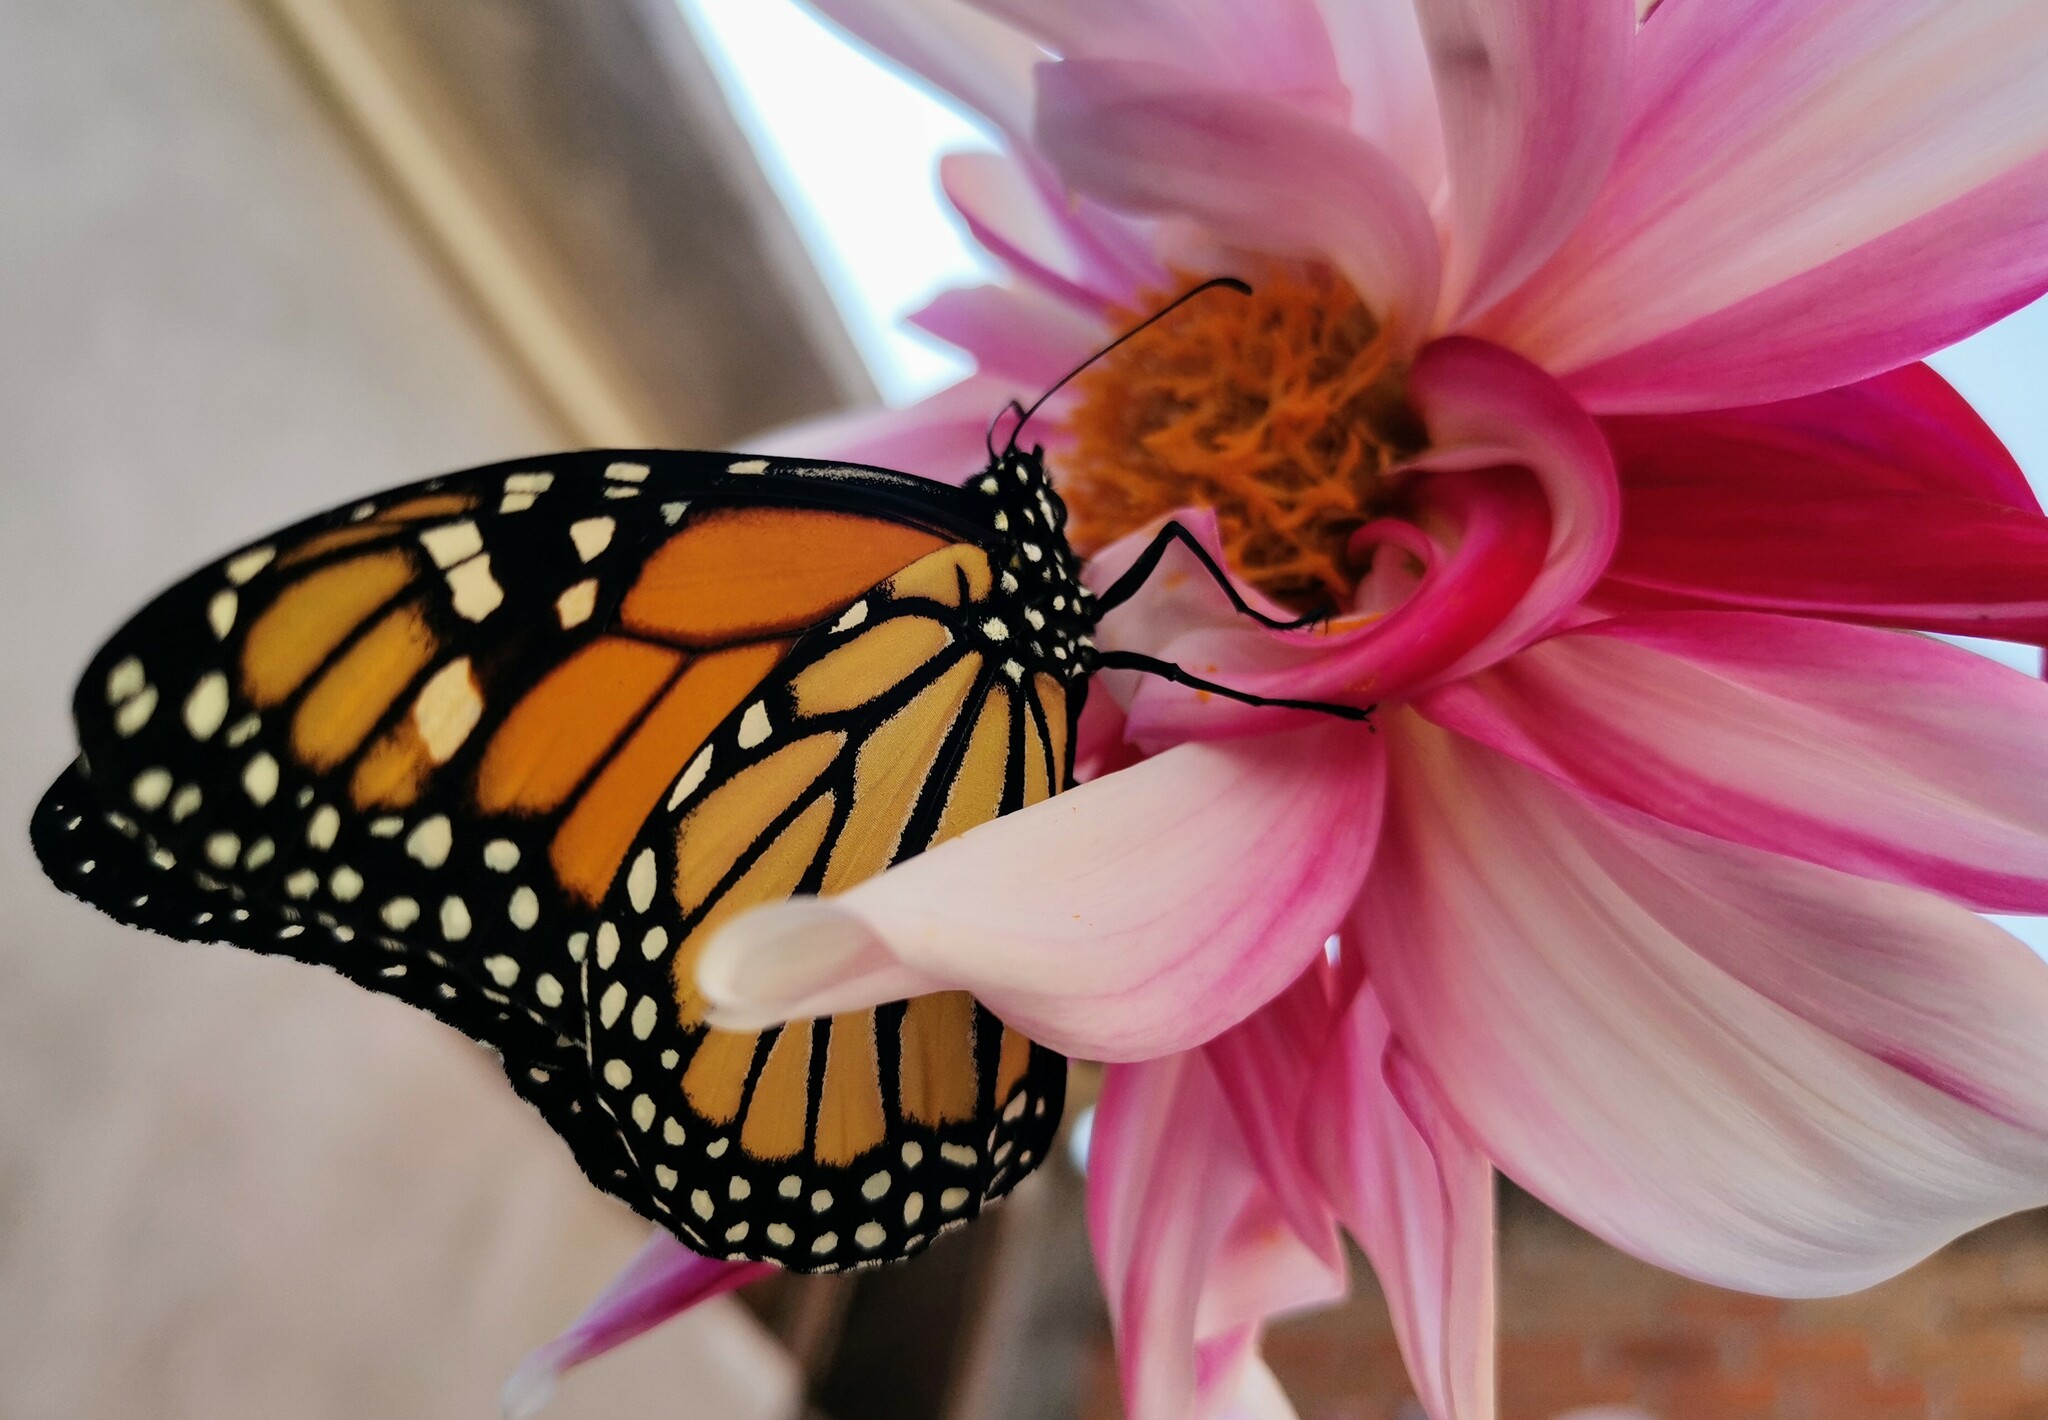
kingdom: Animalia
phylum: Arthropoda
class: Insecta
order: Lepidoptera
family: Nymphalidae
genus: Danaus
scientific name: Danaus plexippus
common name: Monarch
